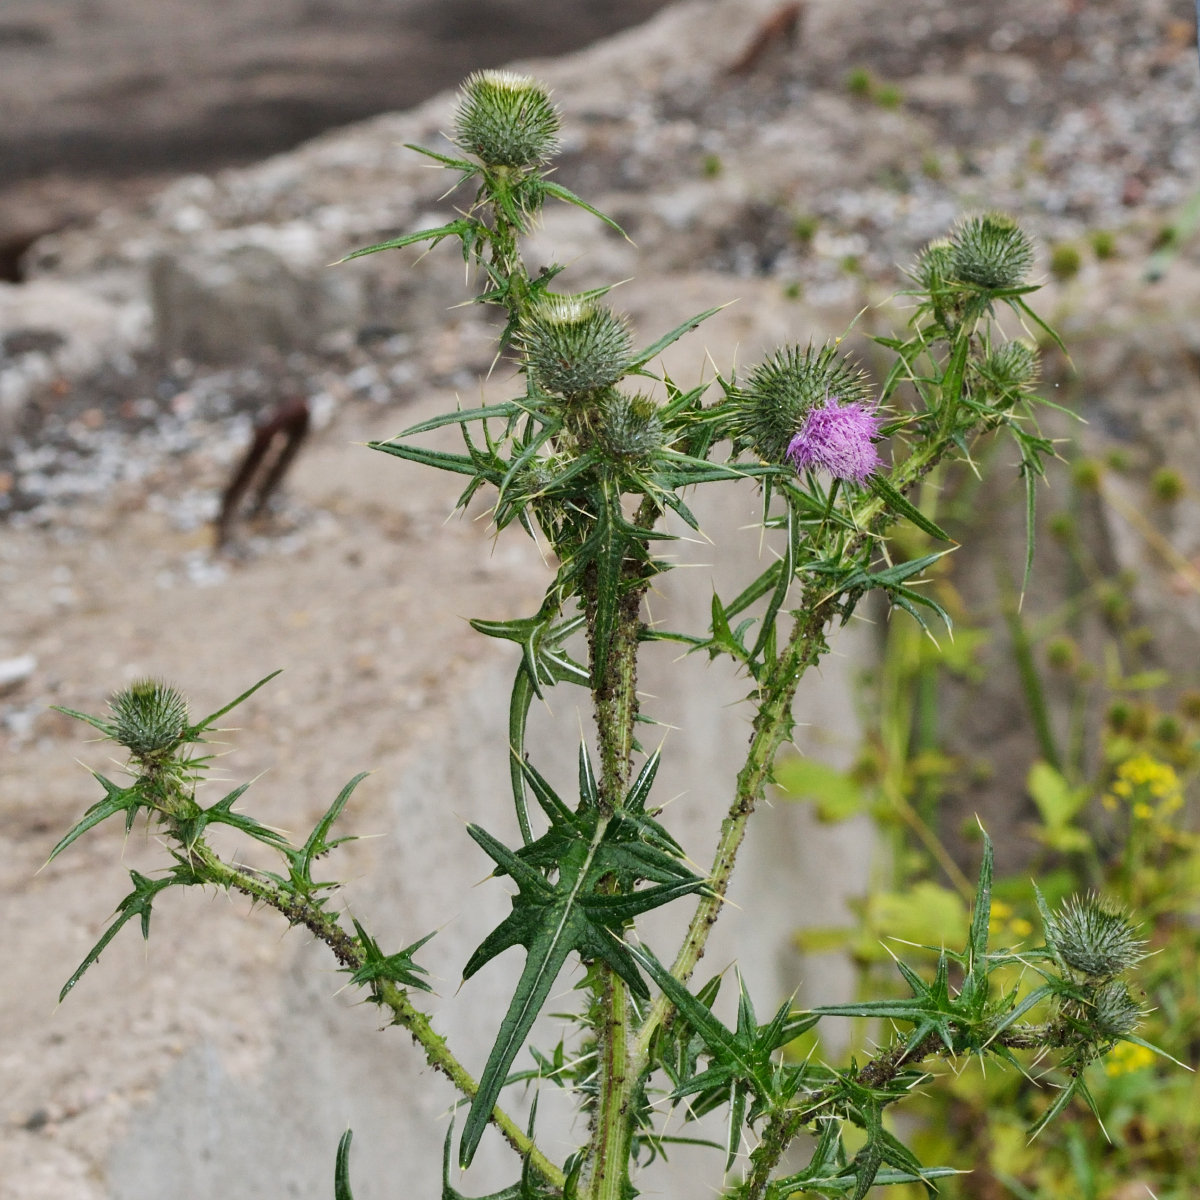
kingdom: Plantae
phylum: Tracheophyta
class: Magnoliopsida
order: Asterales
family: Asteraceae
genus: Cirsium
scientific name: Cirsium vulgare
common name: Bull thistle
